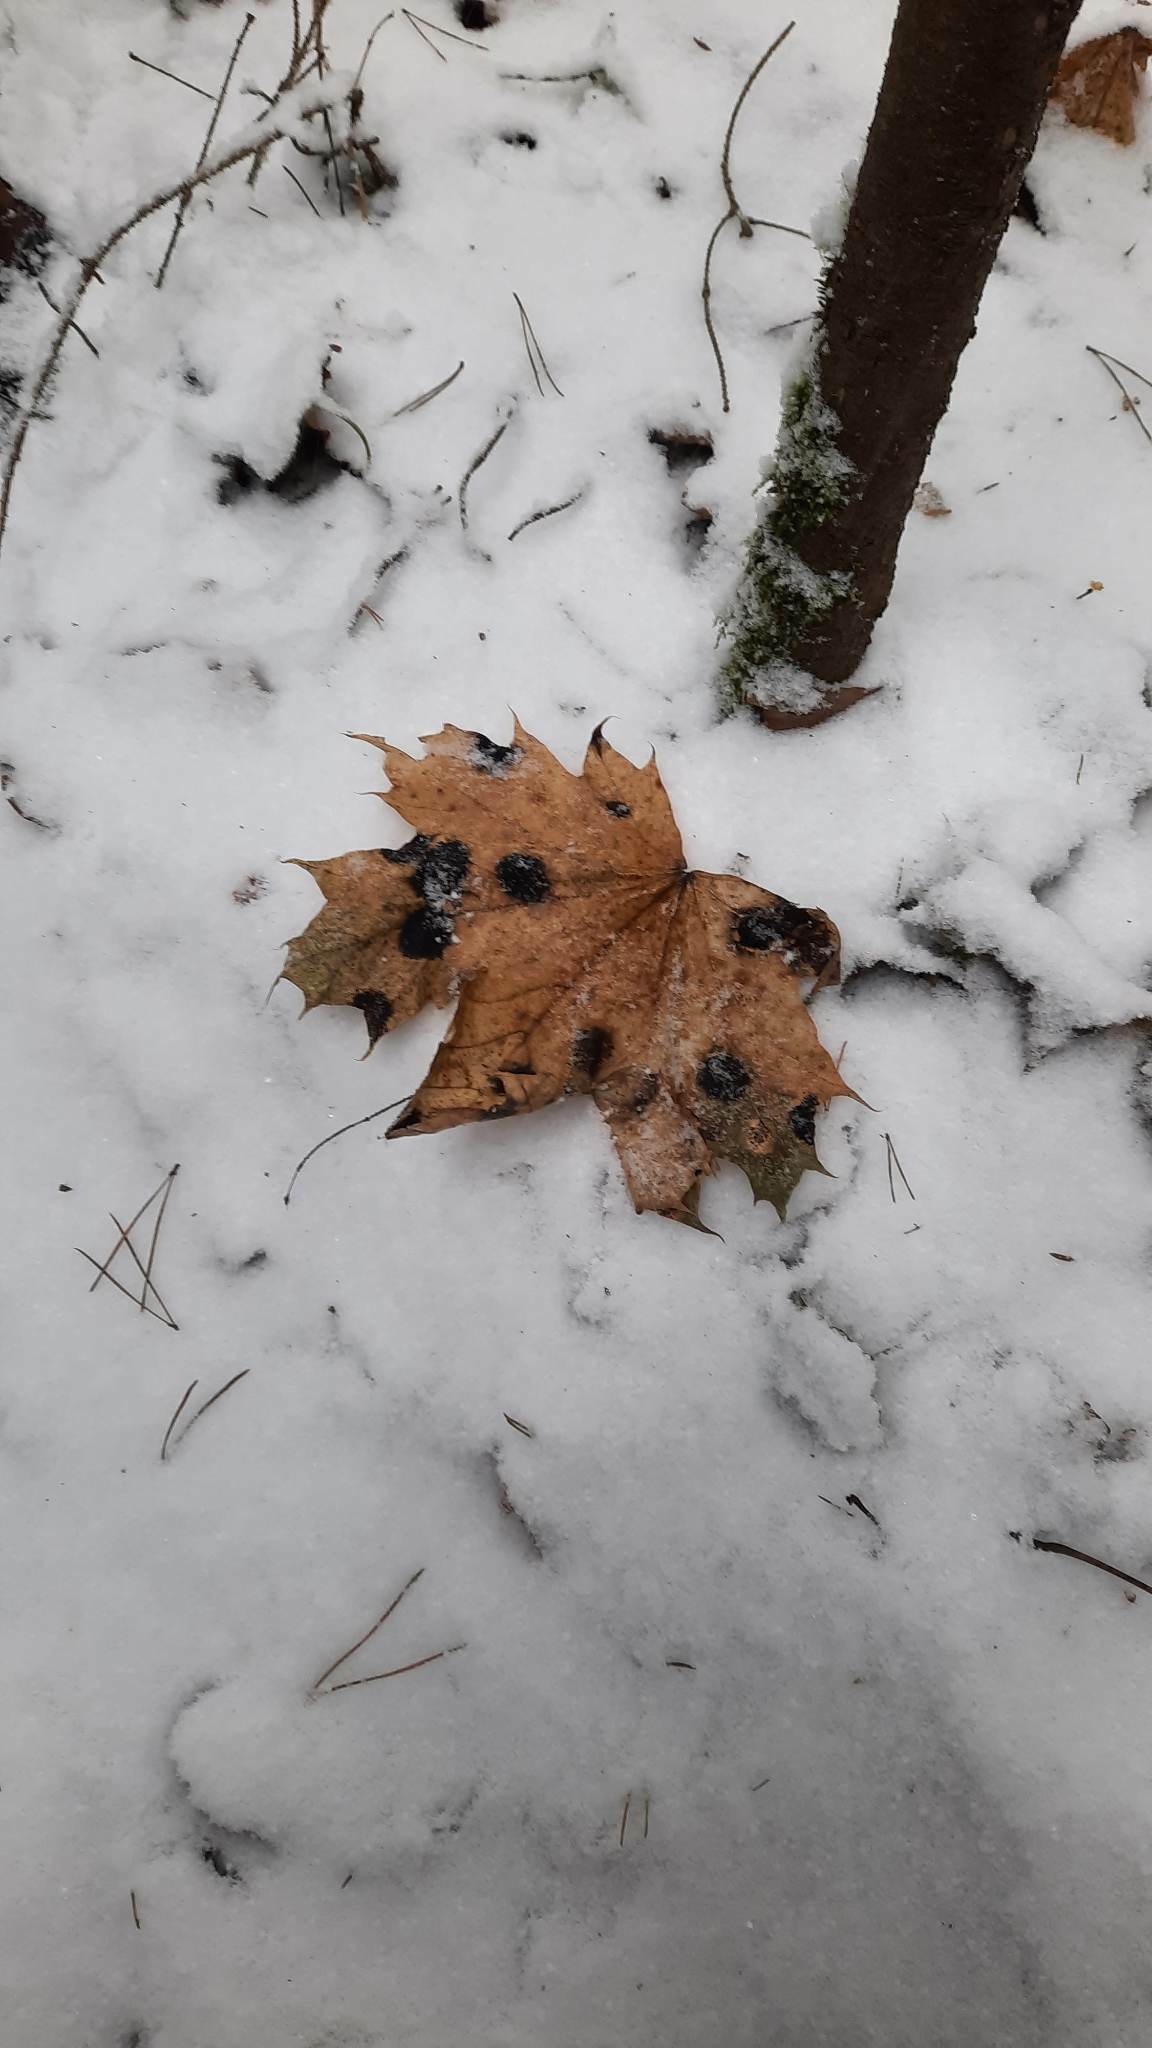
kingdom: Fungi
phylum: Ascomycota
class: Leotiomycetes
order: Rhytismatales
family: Rhytismataceae
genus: Rhytisma
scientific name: Rhytisma acerinum
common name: European tar spot
